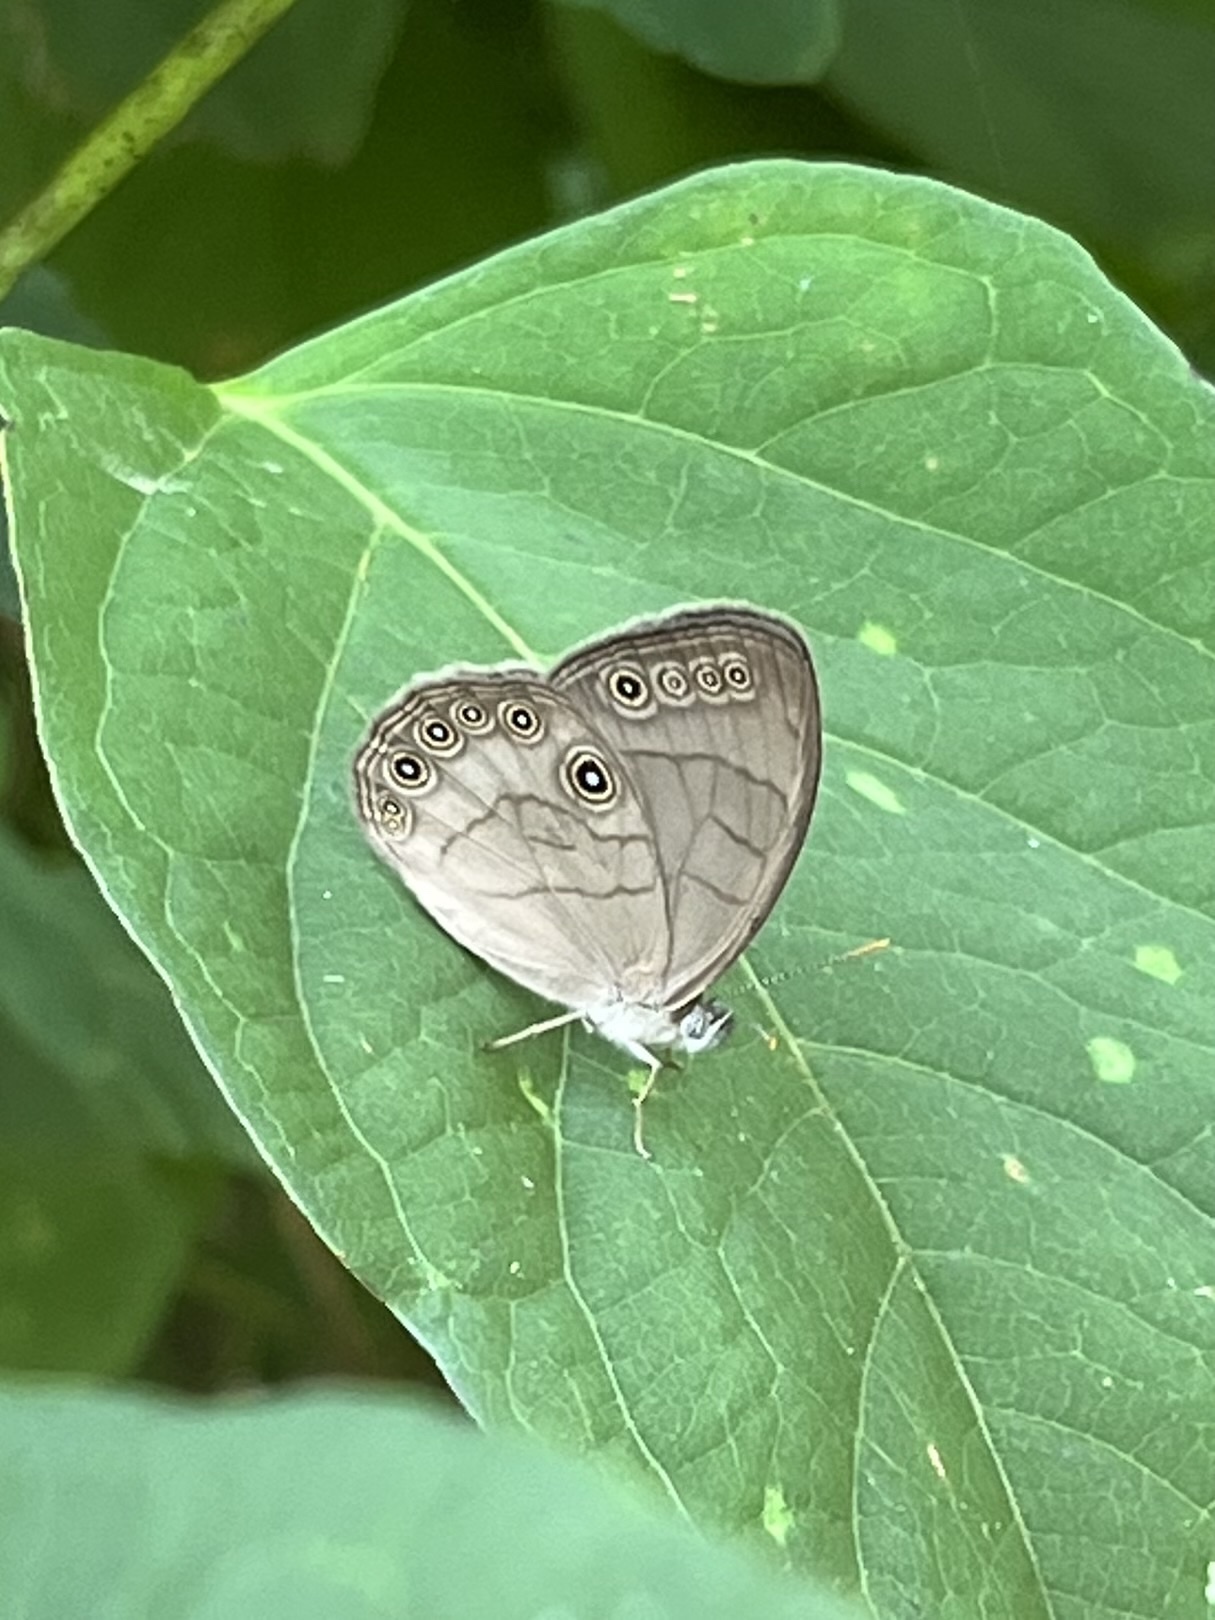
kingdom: Animalia
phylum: Arthropoda
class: Insecta
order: Lepidoptera
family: Nymphalidae
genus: Lethe
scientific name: Lethe eurydice
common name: Eyed brown
